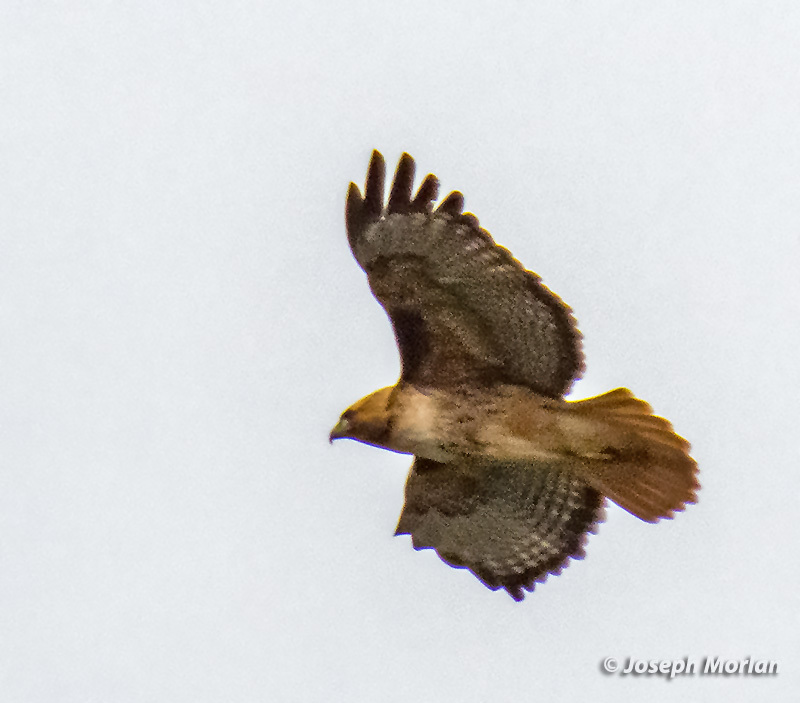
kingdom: Animalia
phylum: Chordata
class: Aves
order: Accipitriformes
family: Accipitridae
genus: Buteo
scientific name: Buteo jamaicensis
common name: Red-tailed hawk
